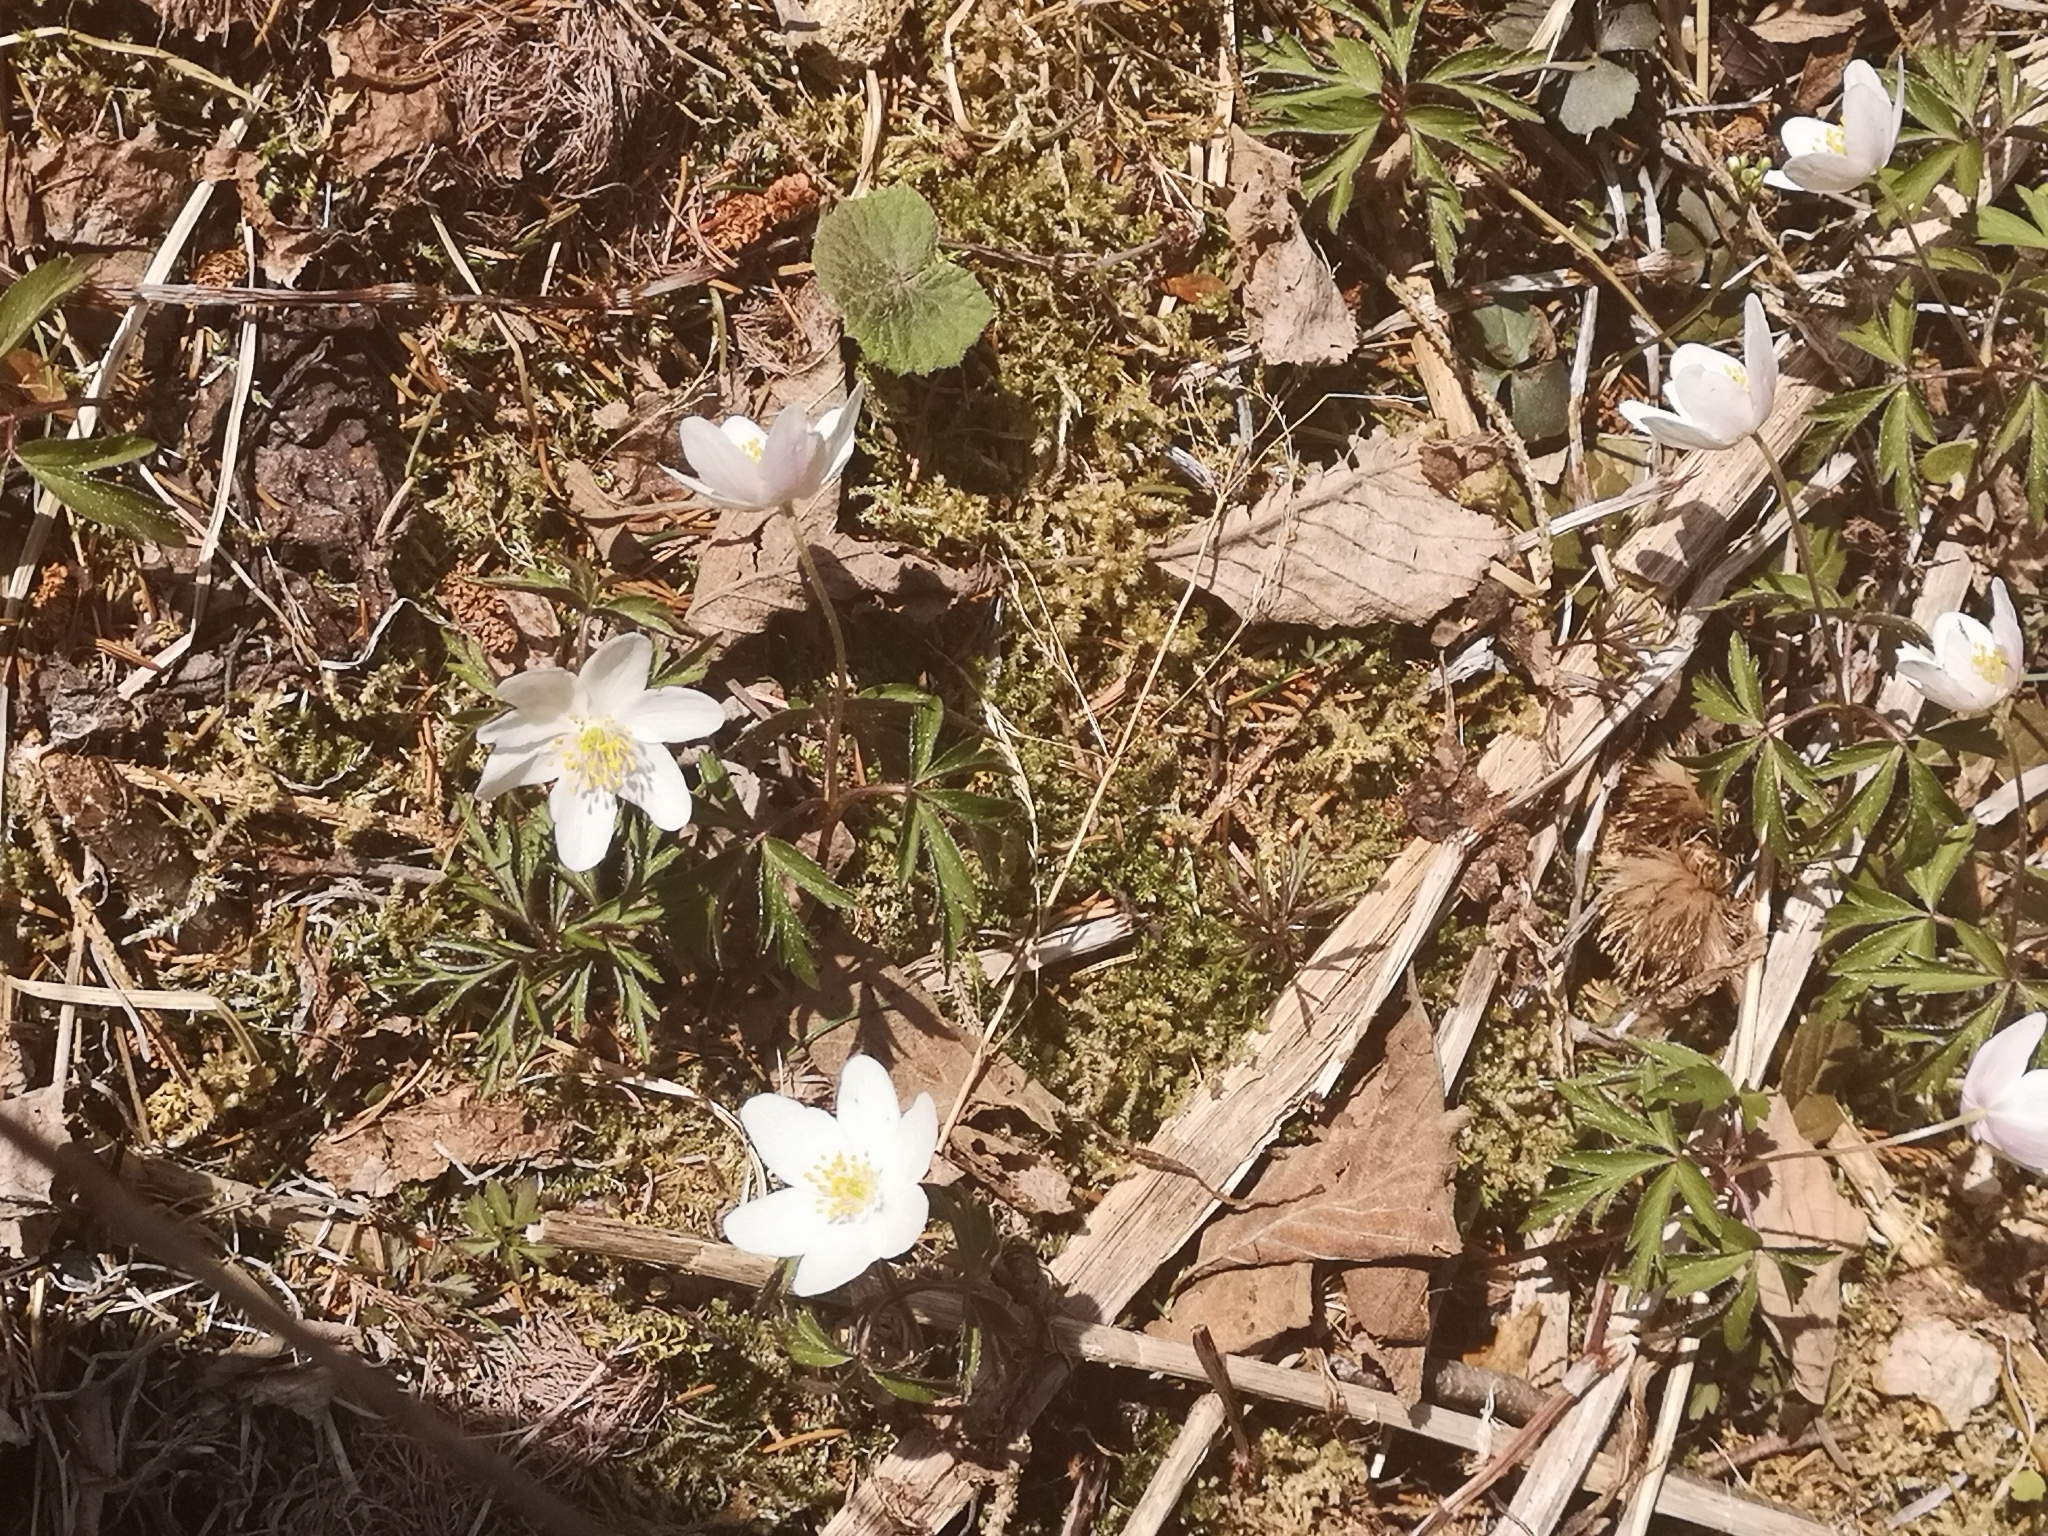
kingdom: Plantae
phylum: Tracheophyta
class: Magnoliopsida
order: Ranunculales
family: Ranunculaceae
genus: Anemone
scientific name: Anemone nemorosa
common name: Wood anemone
